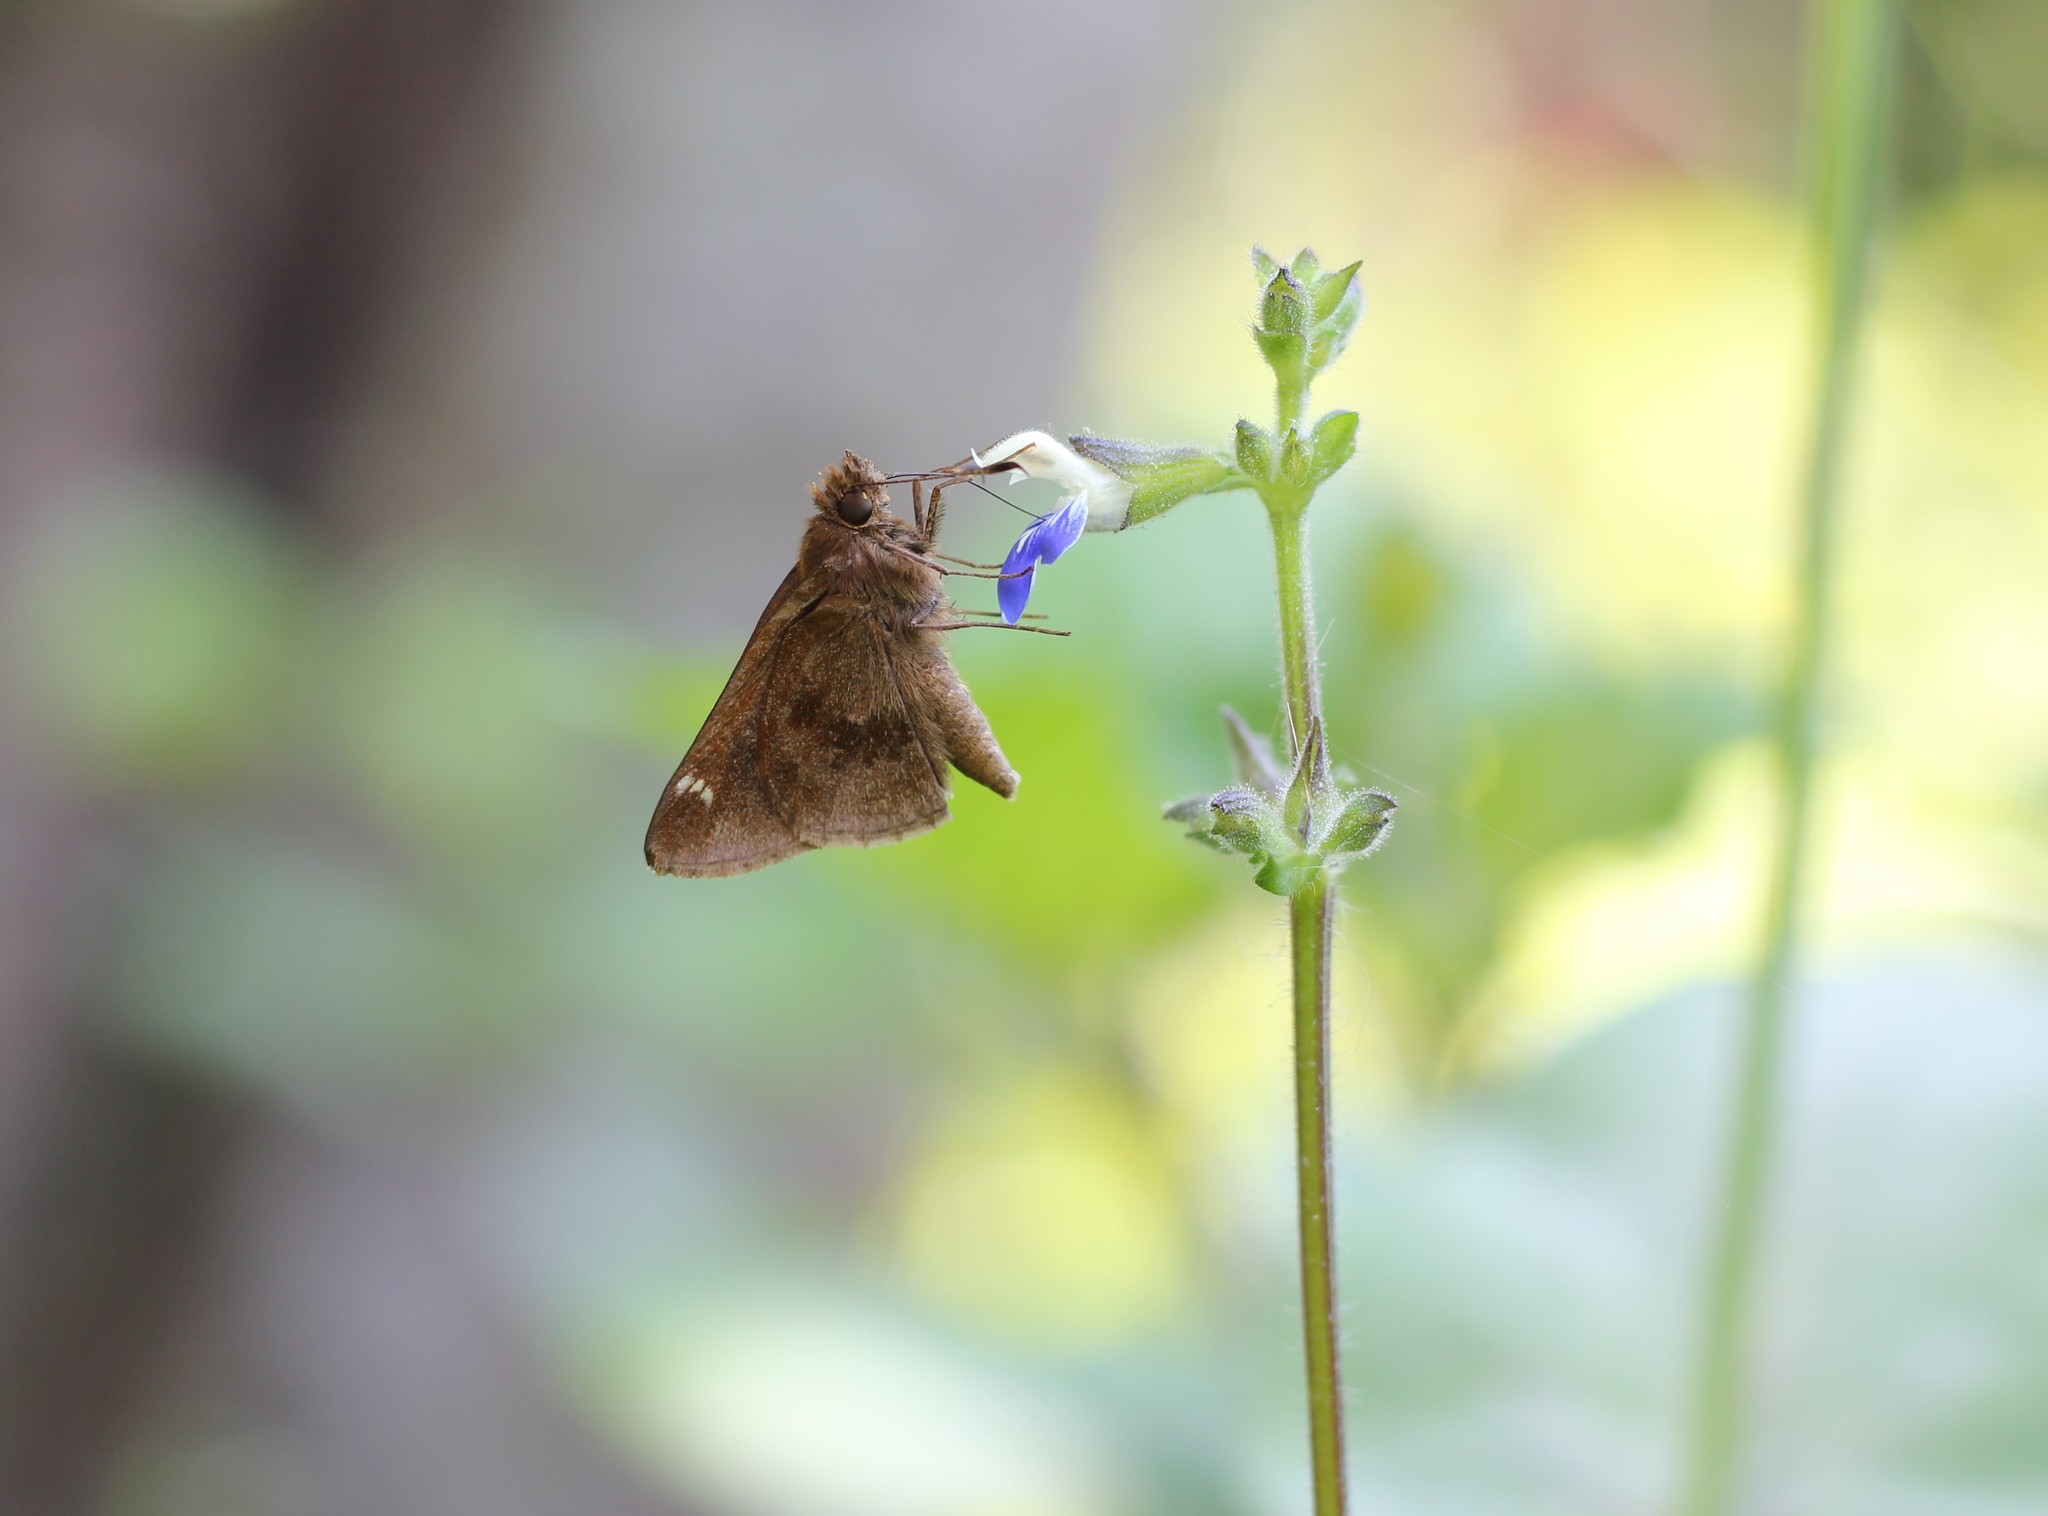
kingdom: Animalia
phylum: Arthropoda
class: Insecta
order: Lepidoptera
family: Hesperiidae
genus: Cymaenes
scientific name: Cymaenes
